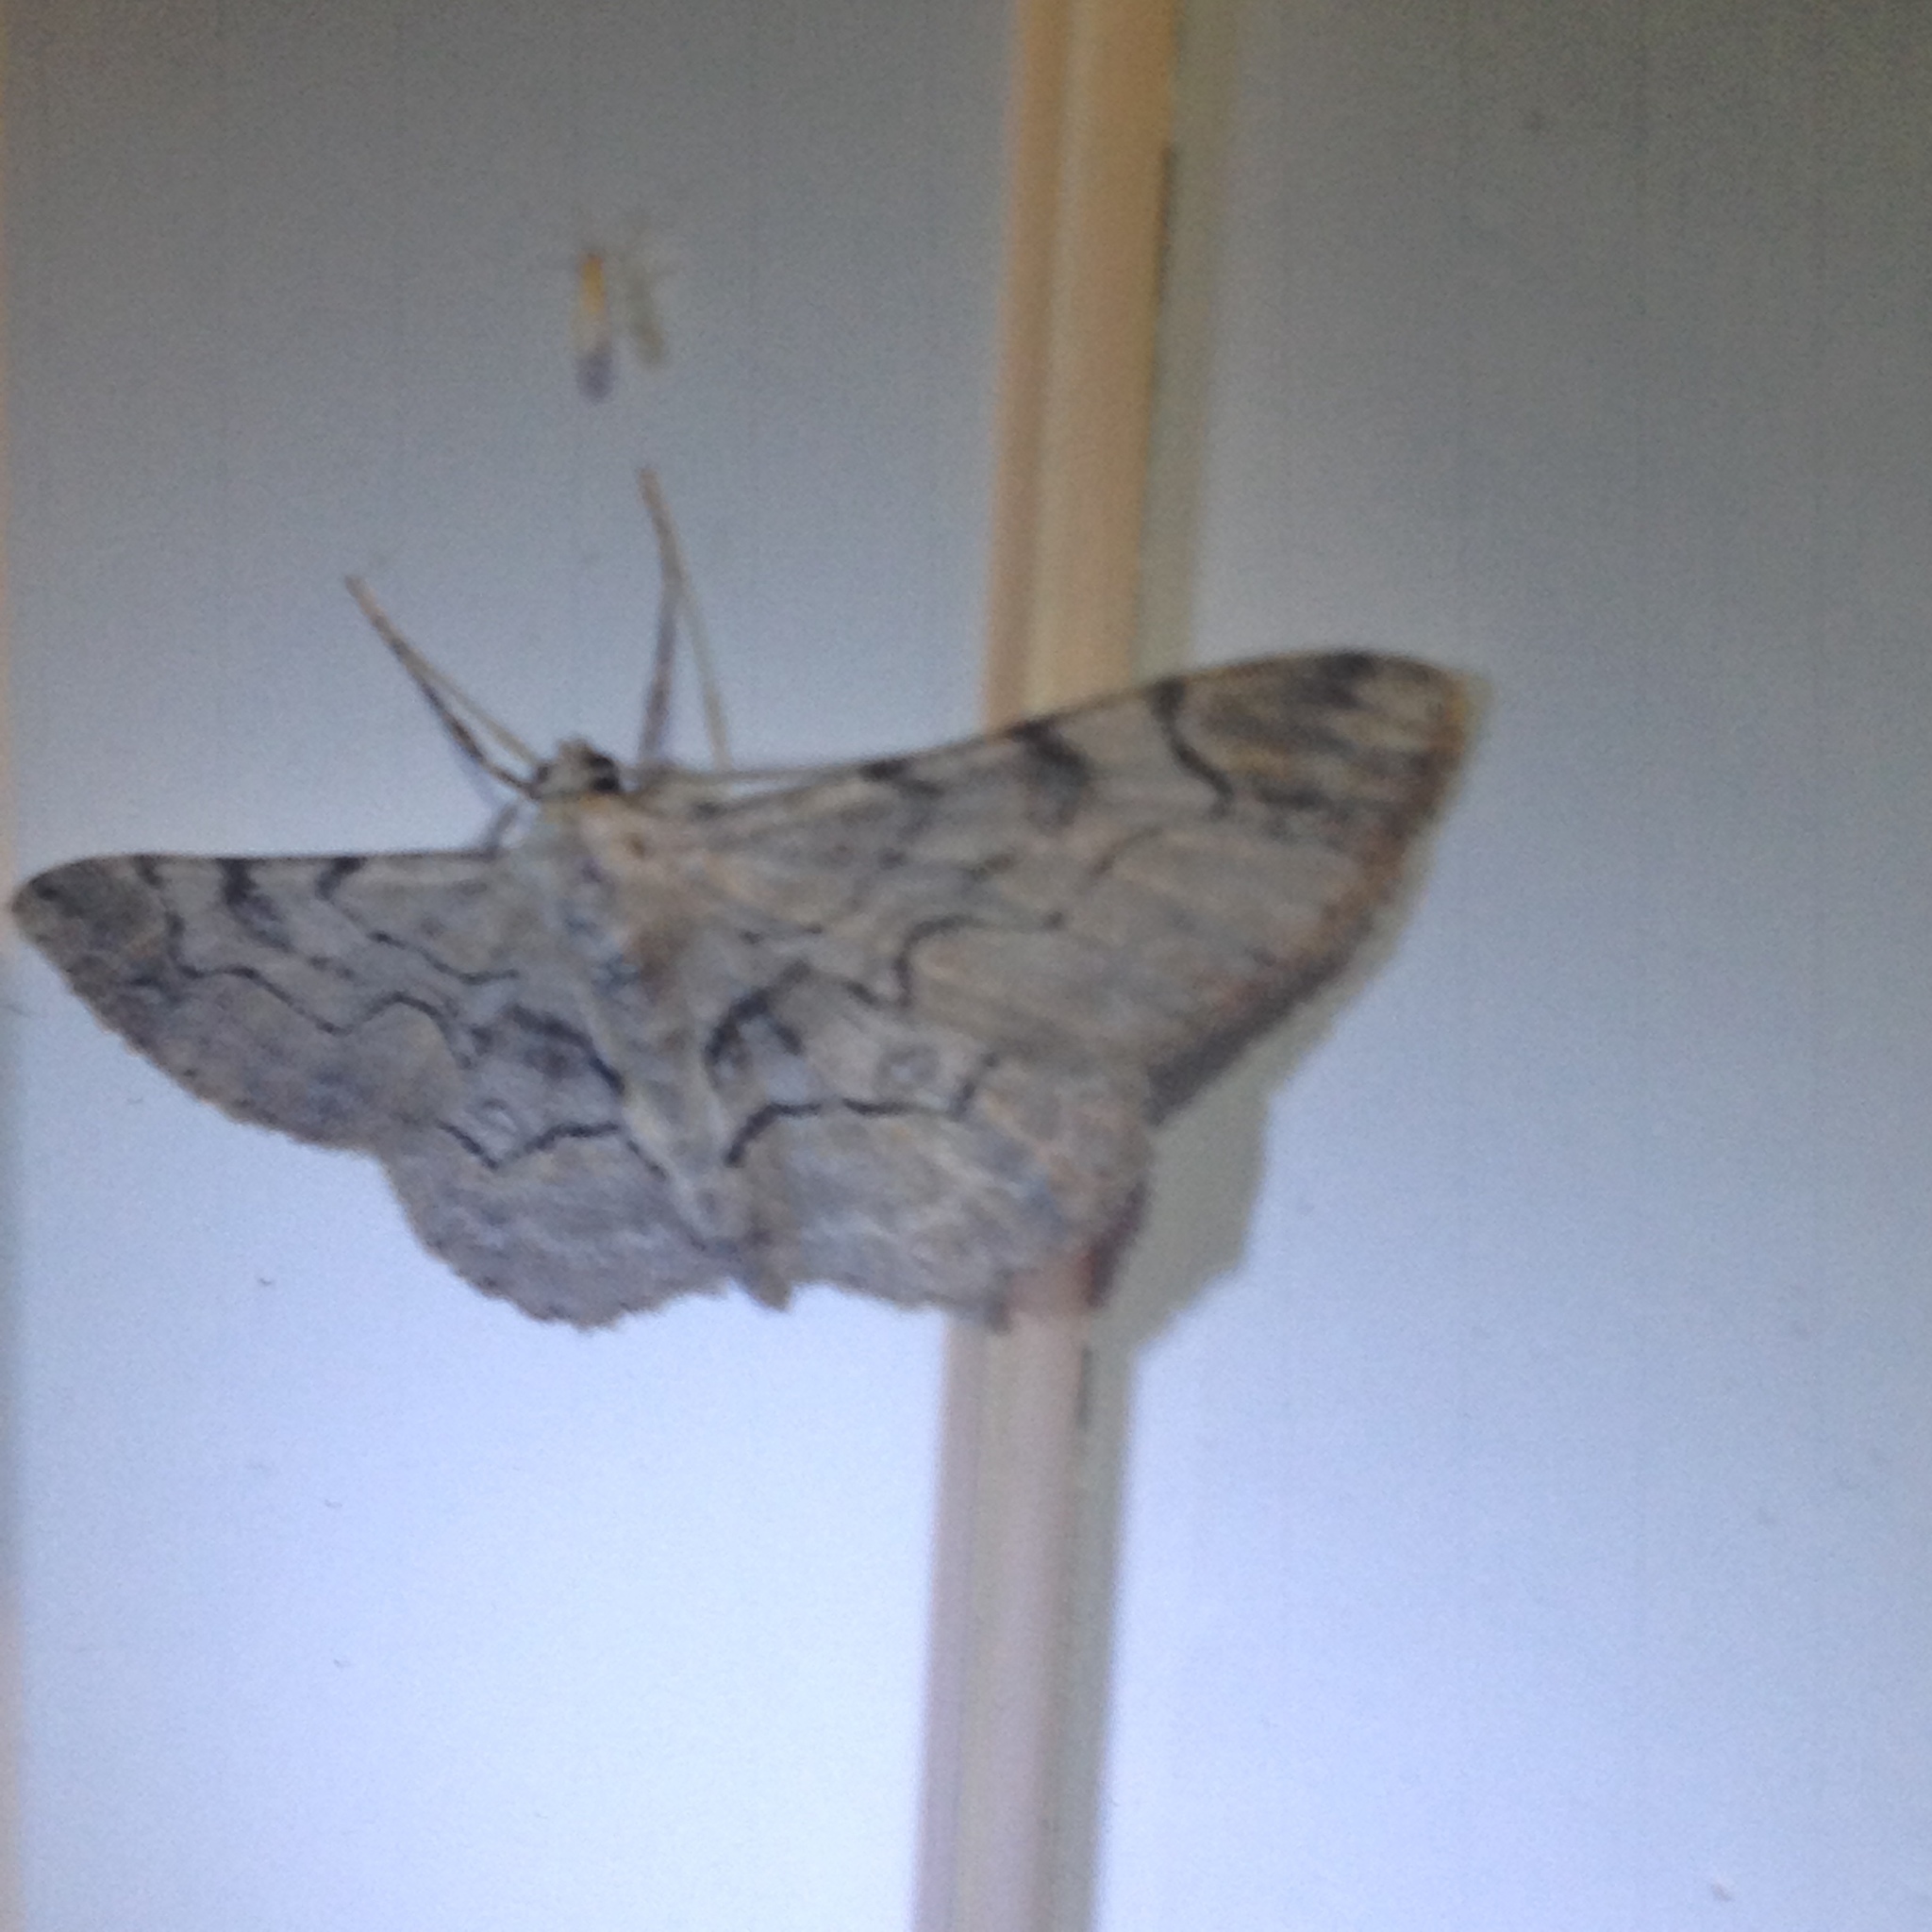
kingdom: Animalia
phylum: Arthropoda
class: Insecta
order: Lepidoptera
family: Geometridae
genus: Iridopsis
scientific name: Iridopsis larvaria
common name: Bent-line gray
